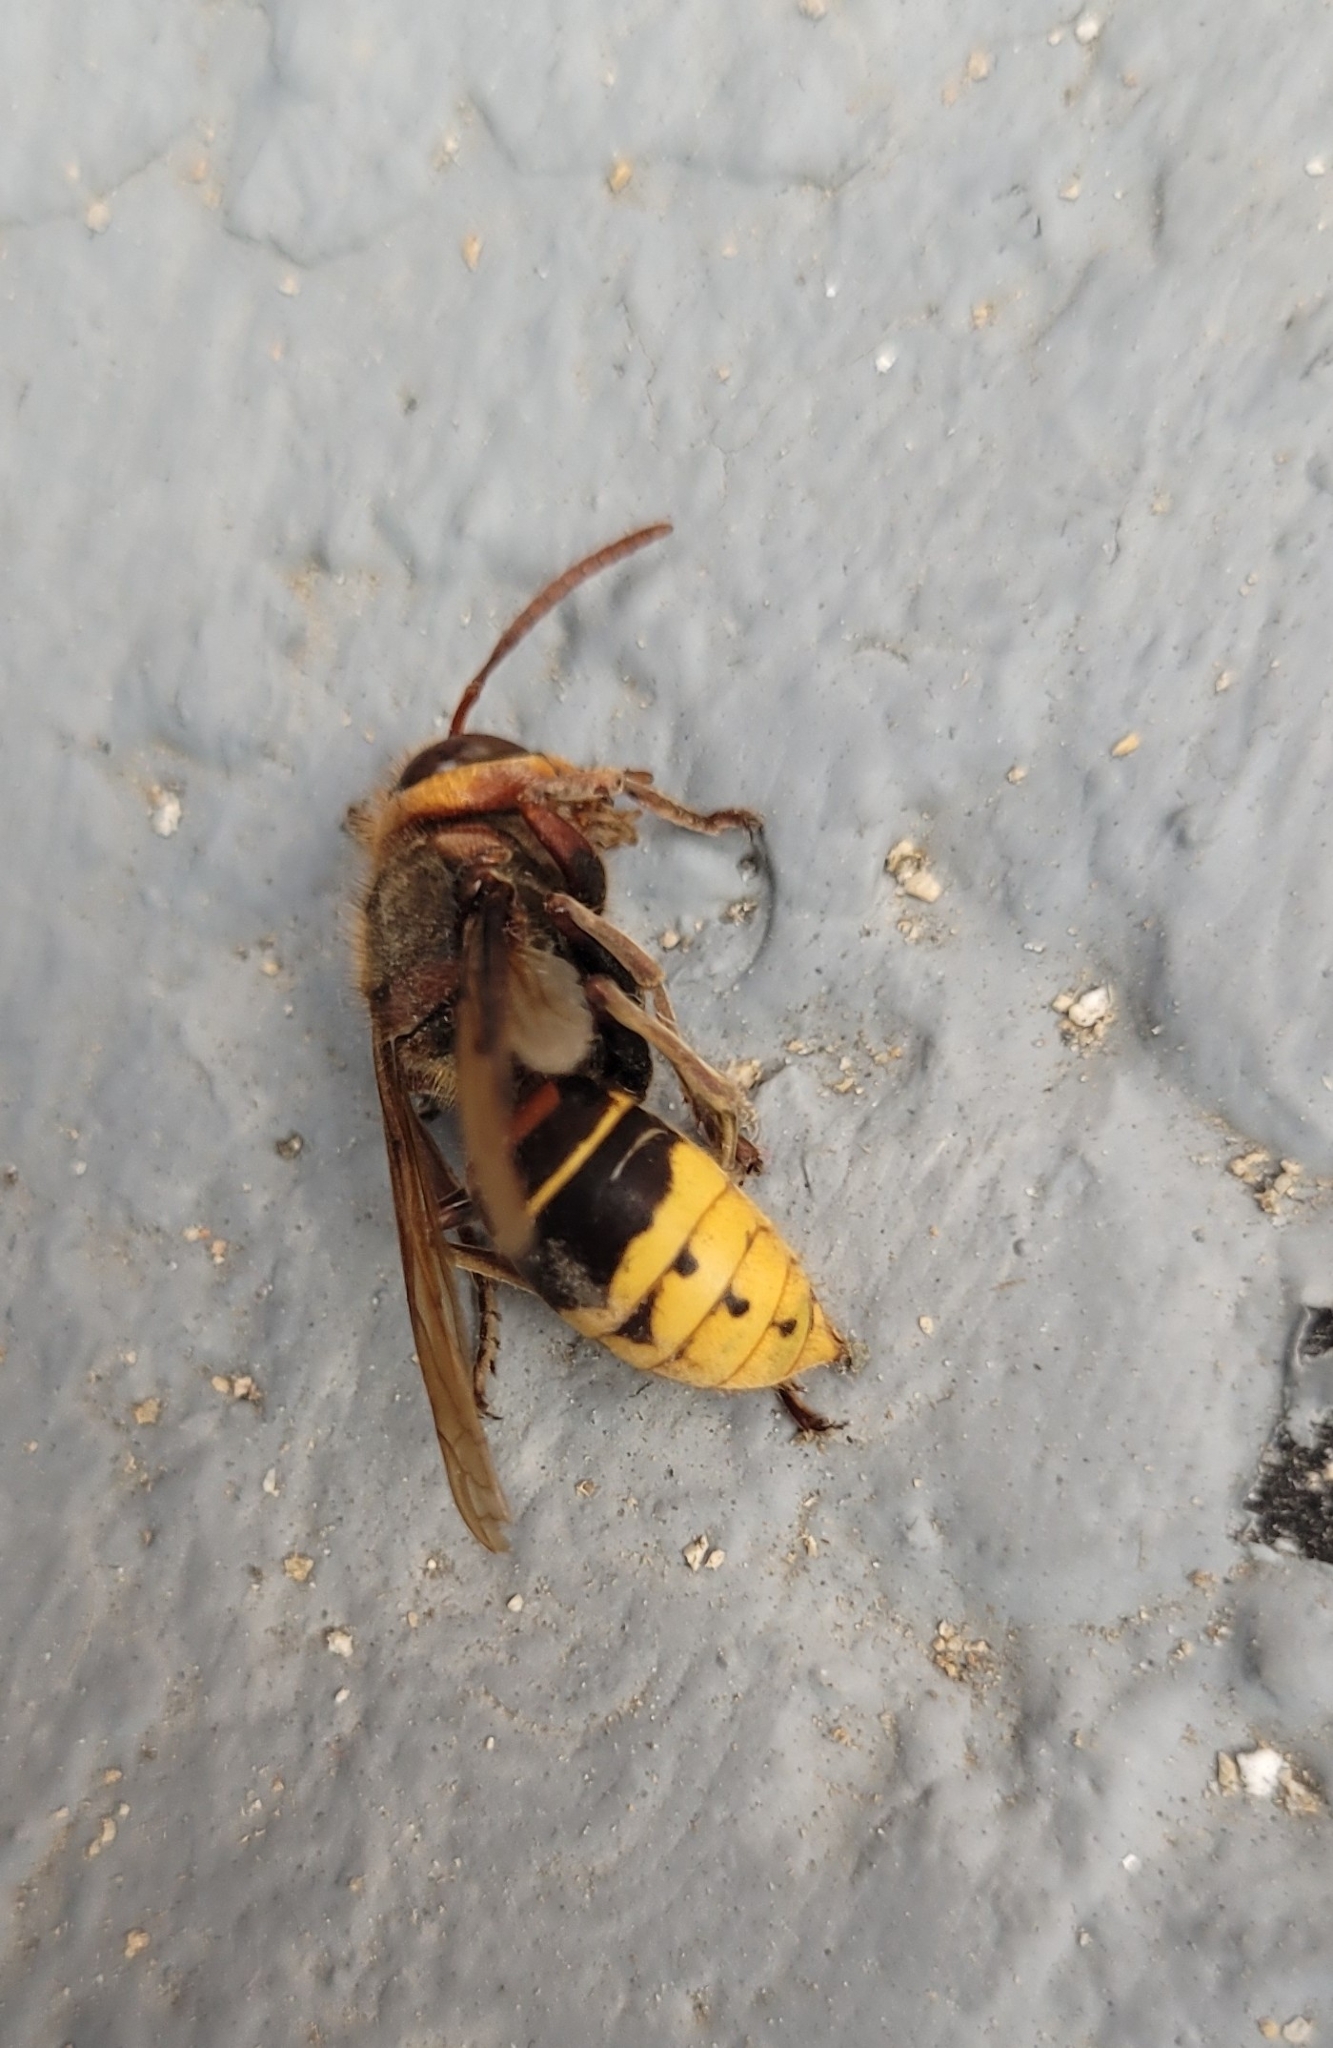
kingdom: Animalia
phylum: Arthropoda
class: Insecta
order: Hymenoptera
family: Vespidae
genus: Vespa
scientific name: Vespa crabro
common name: Hornet
